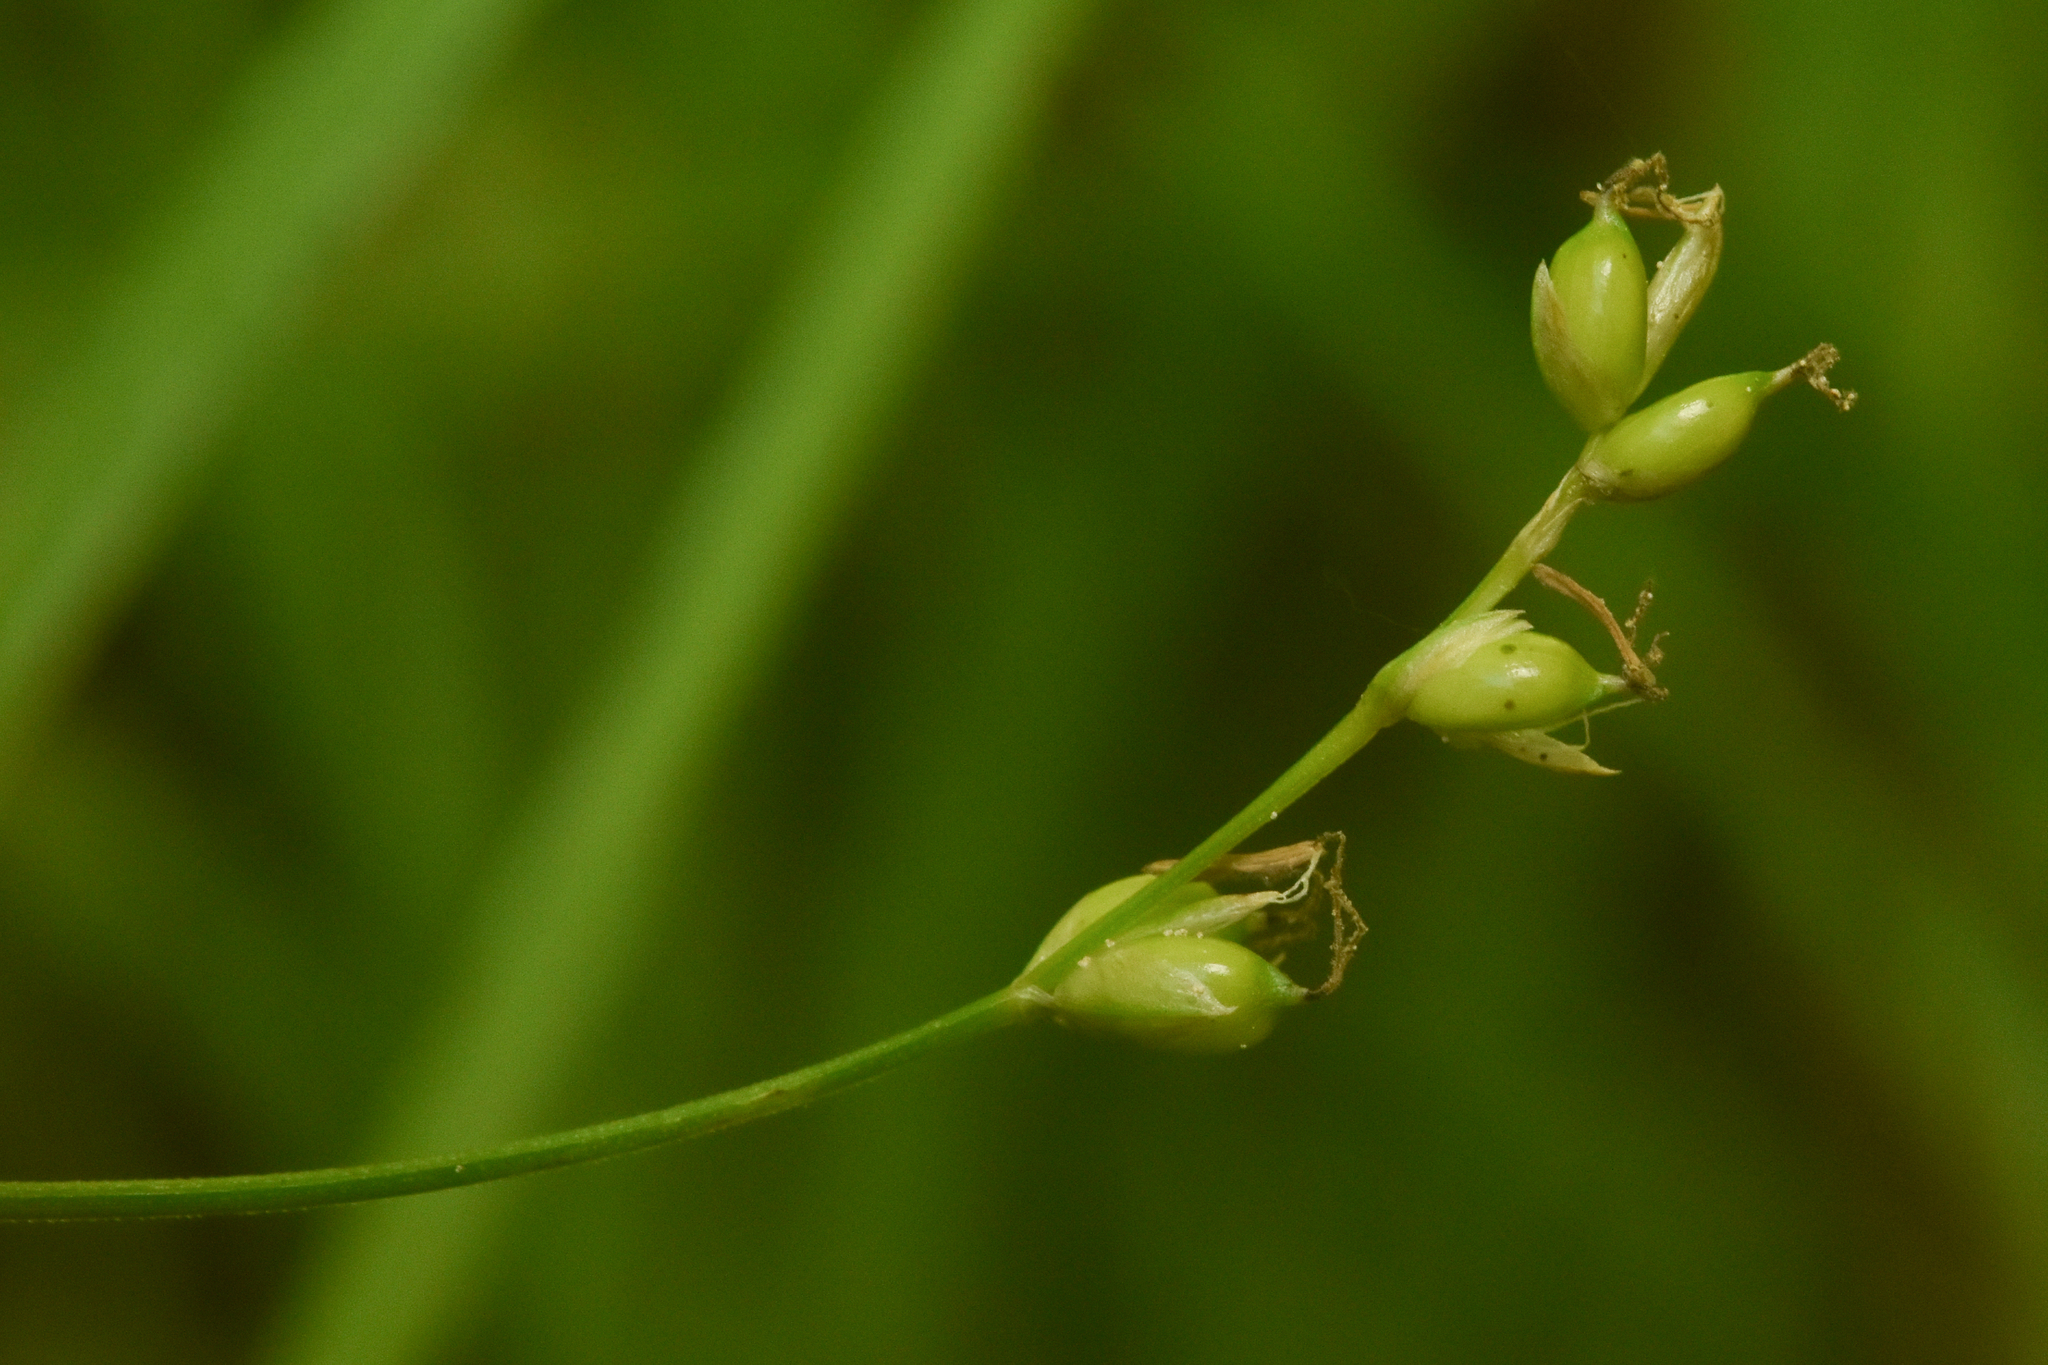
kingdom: Plantae
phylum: Tracheophyta
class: Liliopsida
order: Poales
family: Cyperaceae
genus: Carex
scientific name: Carex disperma
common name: Short-leaved sedge
